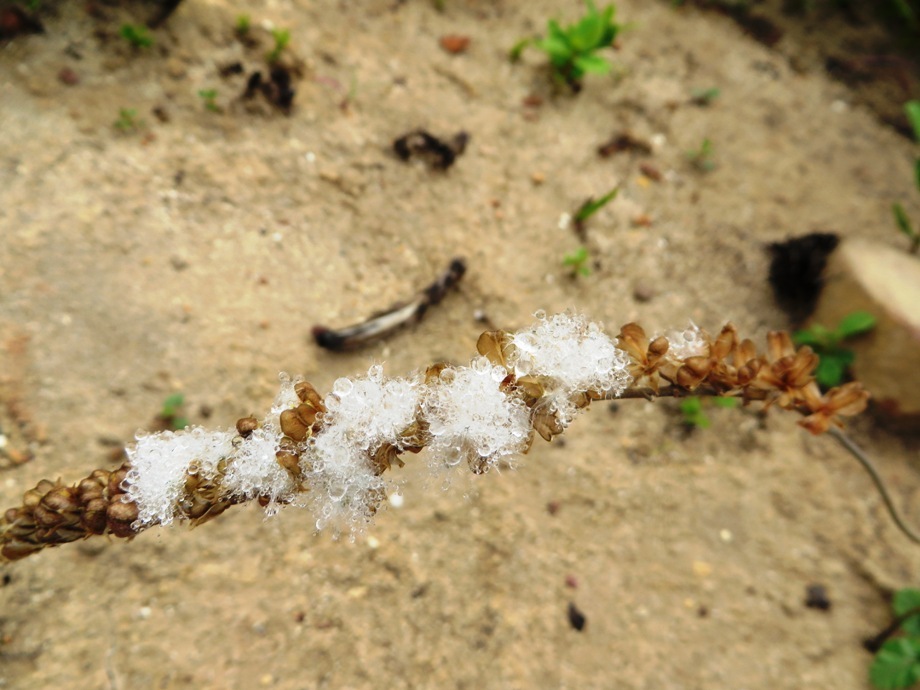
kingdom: Plantae
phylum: Tracheophyta
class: Liliopsida
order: Asparagales
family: Asparagaceae
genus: Eriospermum
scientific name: Eriospermum lanceifolium
